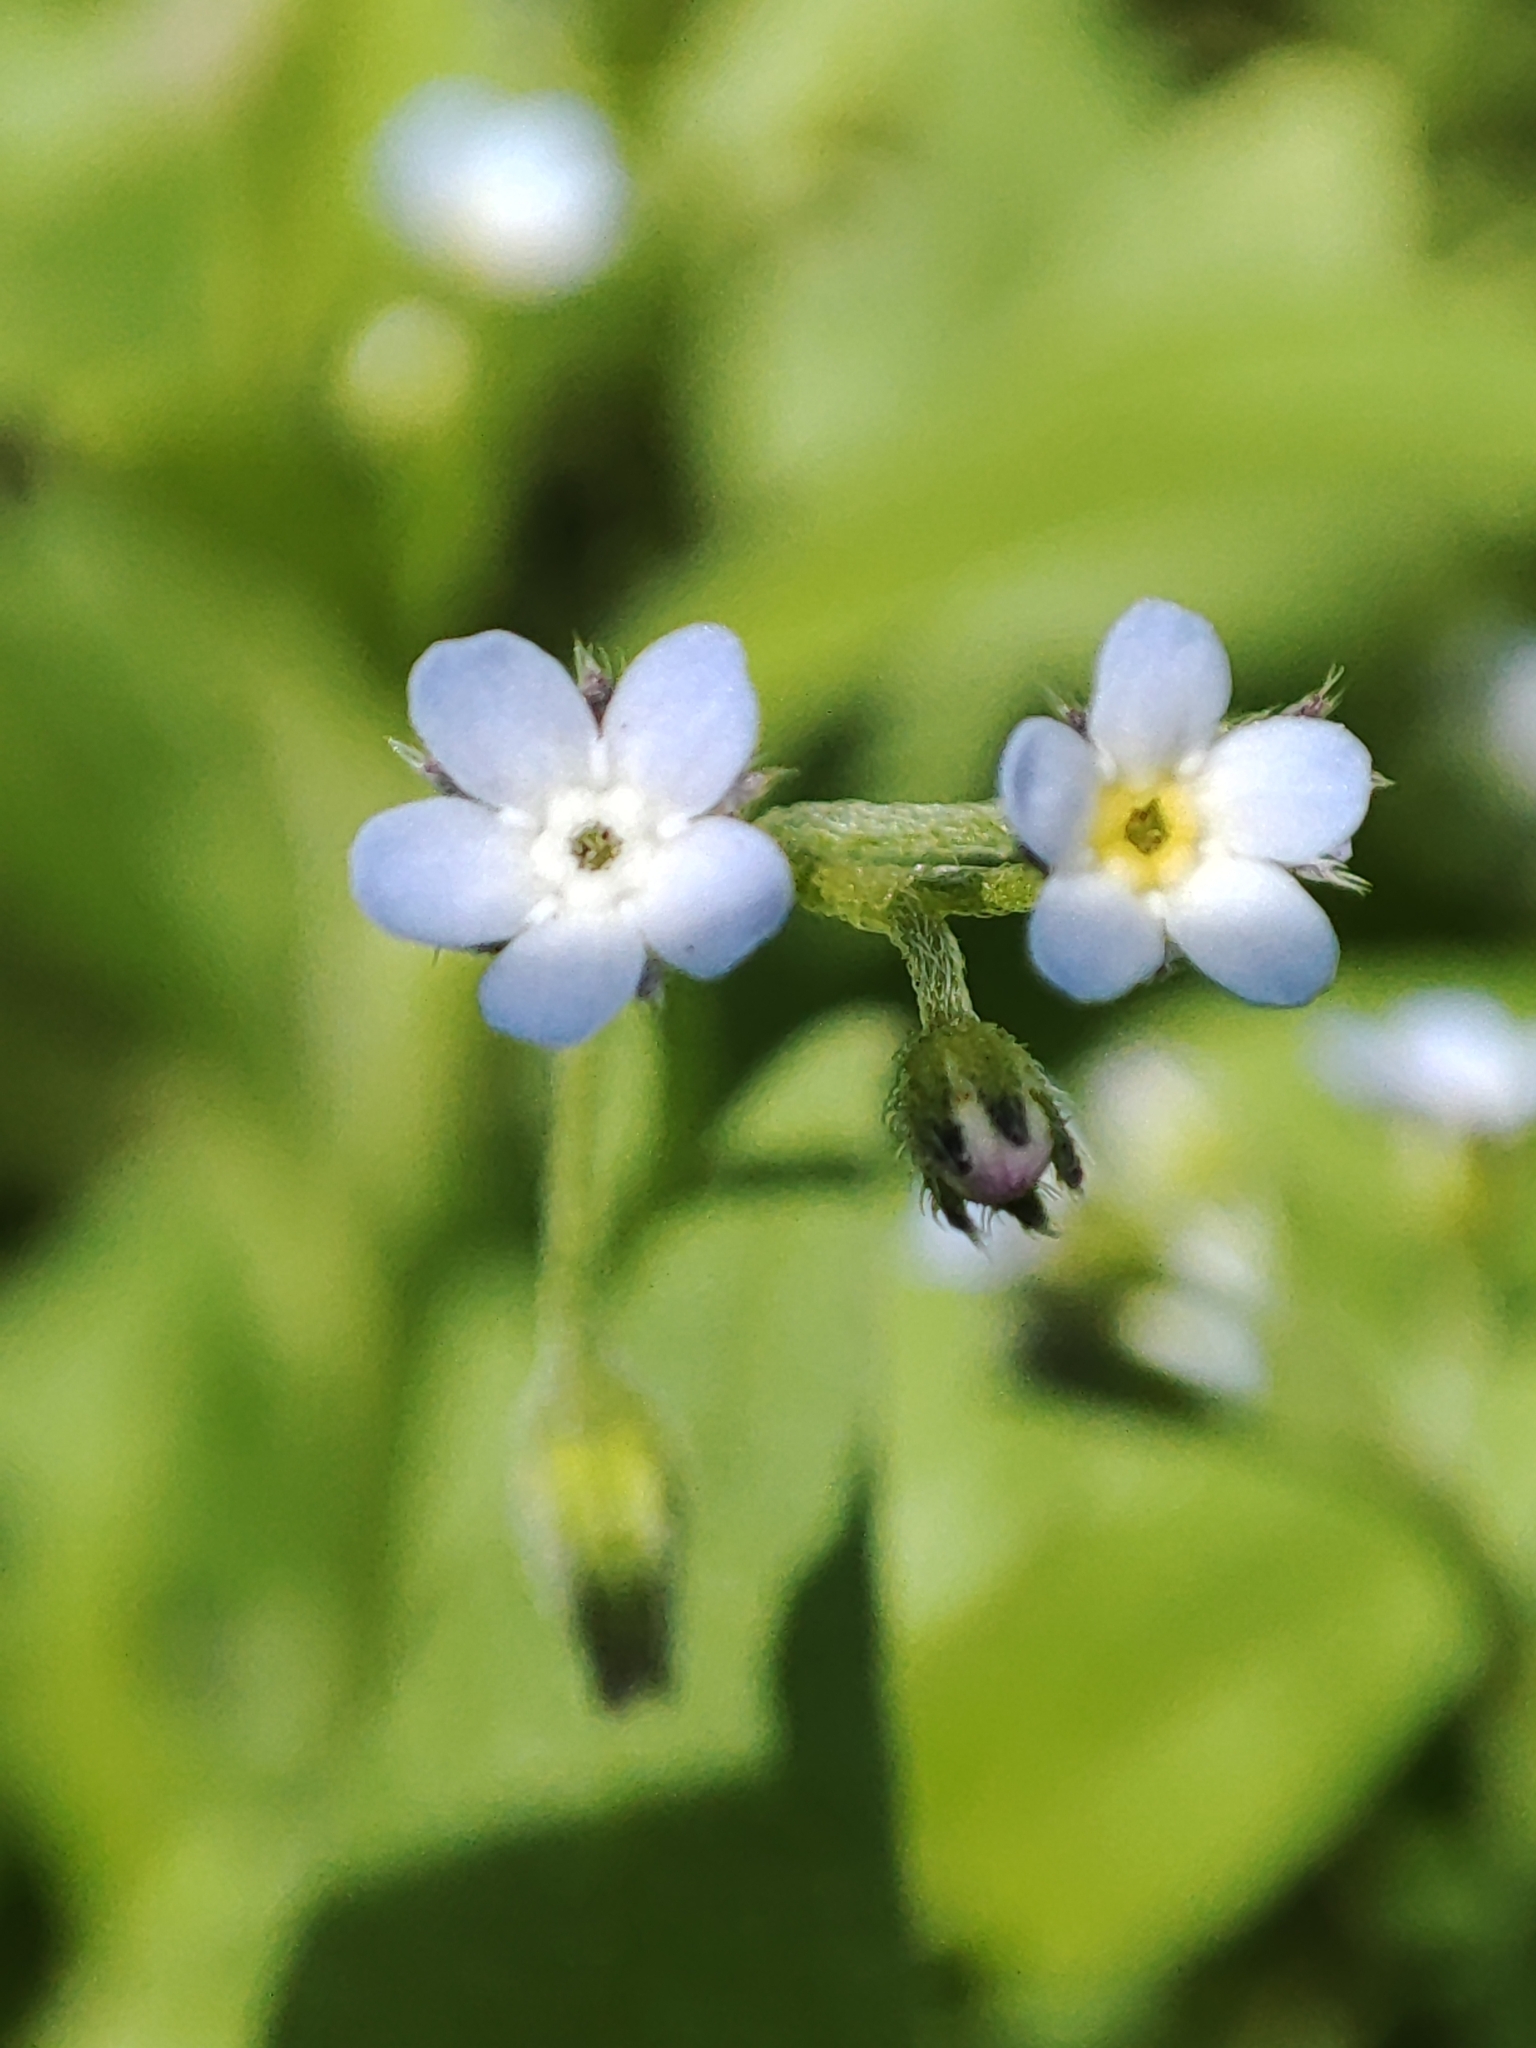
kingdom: Plantae
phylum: Tracheophyta
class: Magnoliopsida
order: Boraginales
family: Boraginaceae
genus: Myosotis
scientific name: Myosotis sparsiflora
